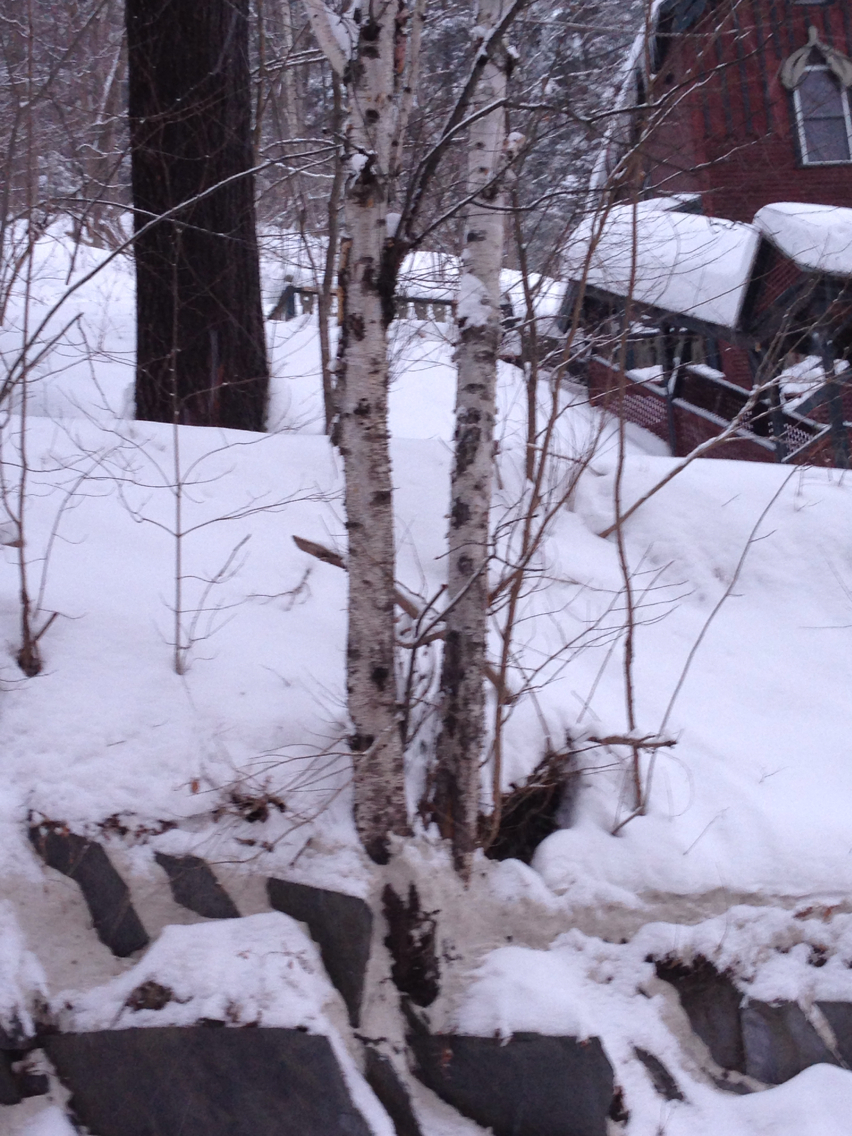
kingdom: Plantae
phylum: Tracheophyta
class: Magnoliopsida
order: Fagales
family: Betulaceae
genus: Betula
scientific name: Betula papyrifera
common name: Paper birch
